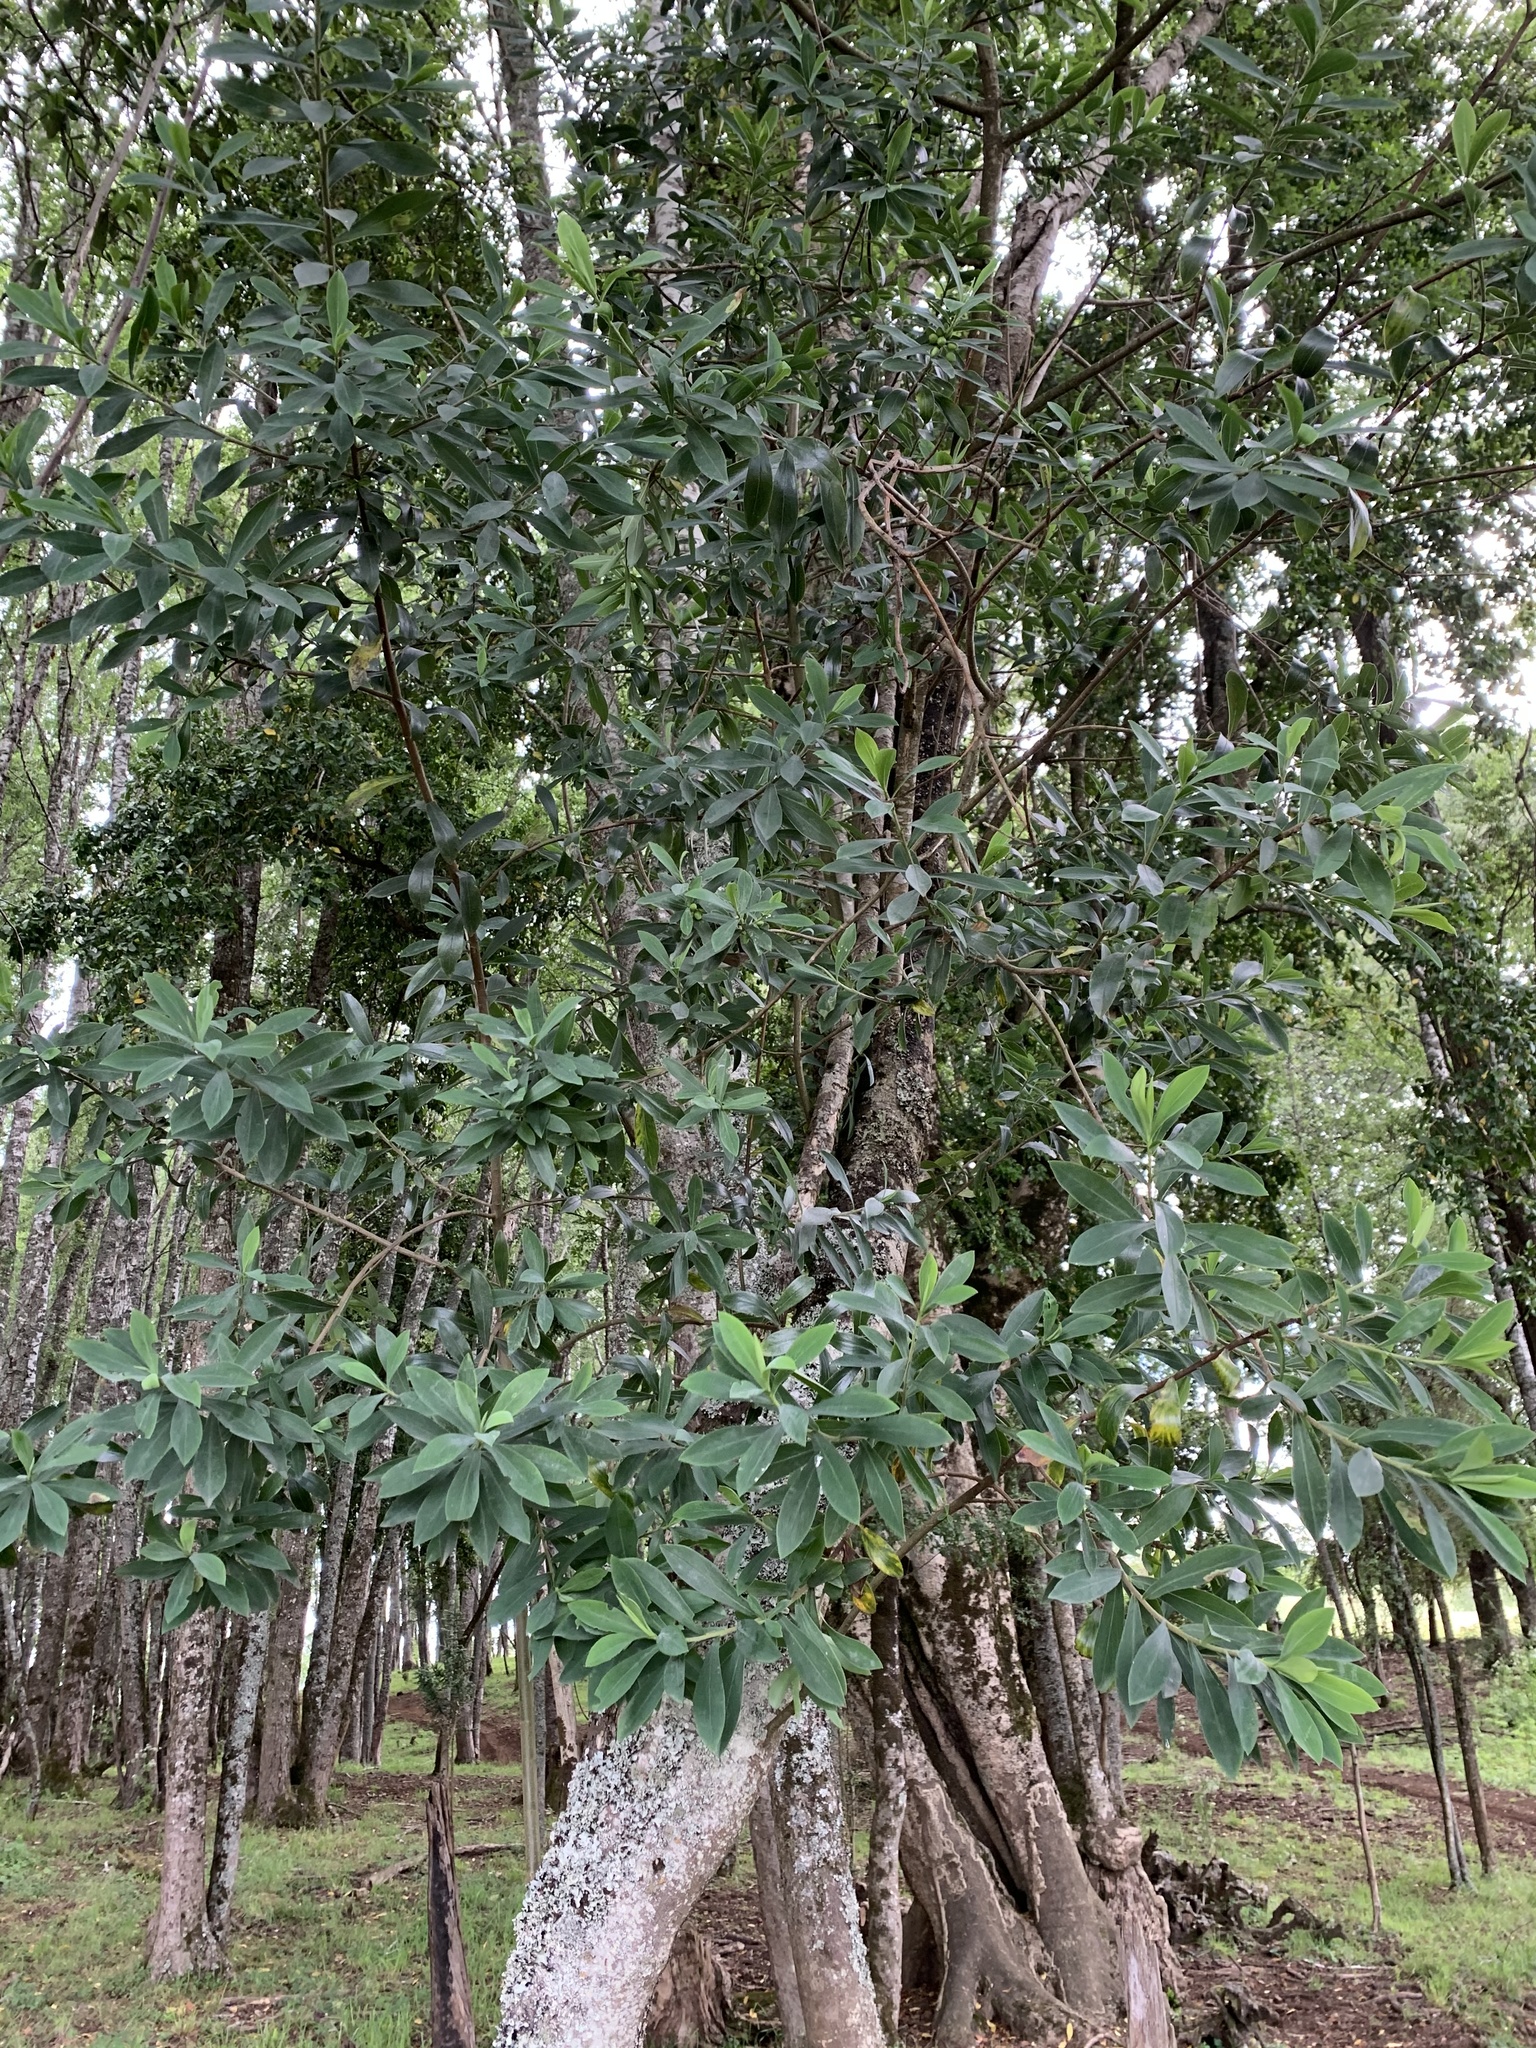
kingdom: Plantae
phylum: Tracheophyta
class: Magnoliopsida
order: Malvales
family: Thymelaeaceae
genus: Ovidia
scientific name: Ovidia andina
